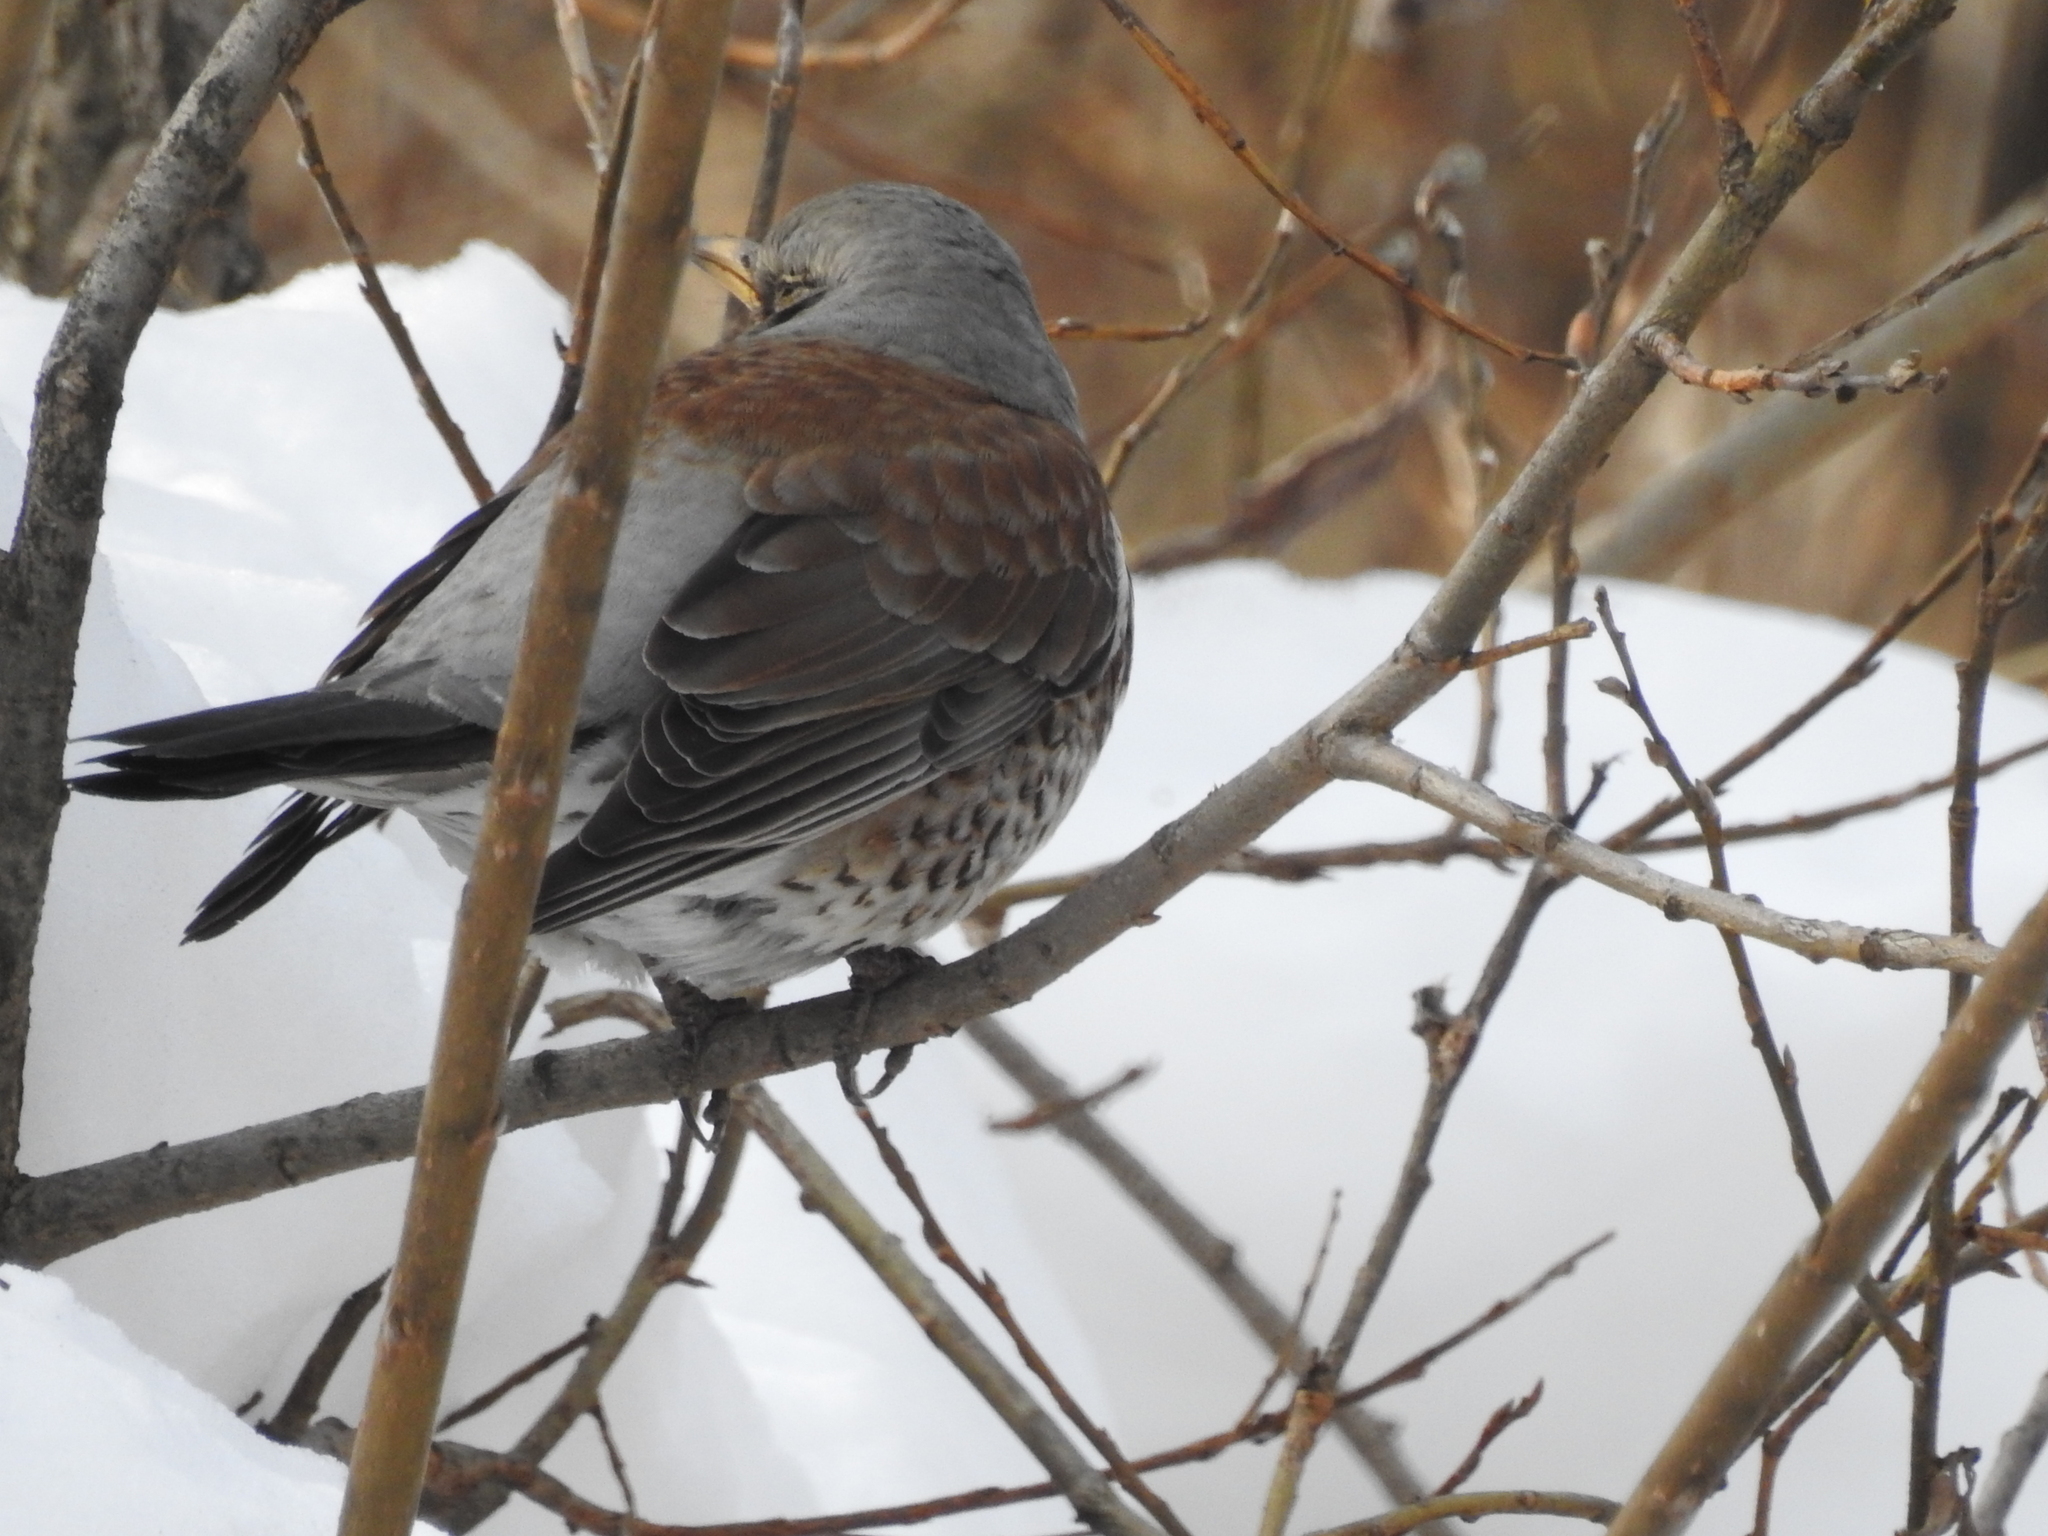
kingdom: Animalia
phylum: Chordata
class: Aves
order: Passeriformes
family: Turdidae
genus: Turdus
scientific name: Turdus pilaris
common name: Fieldfare
